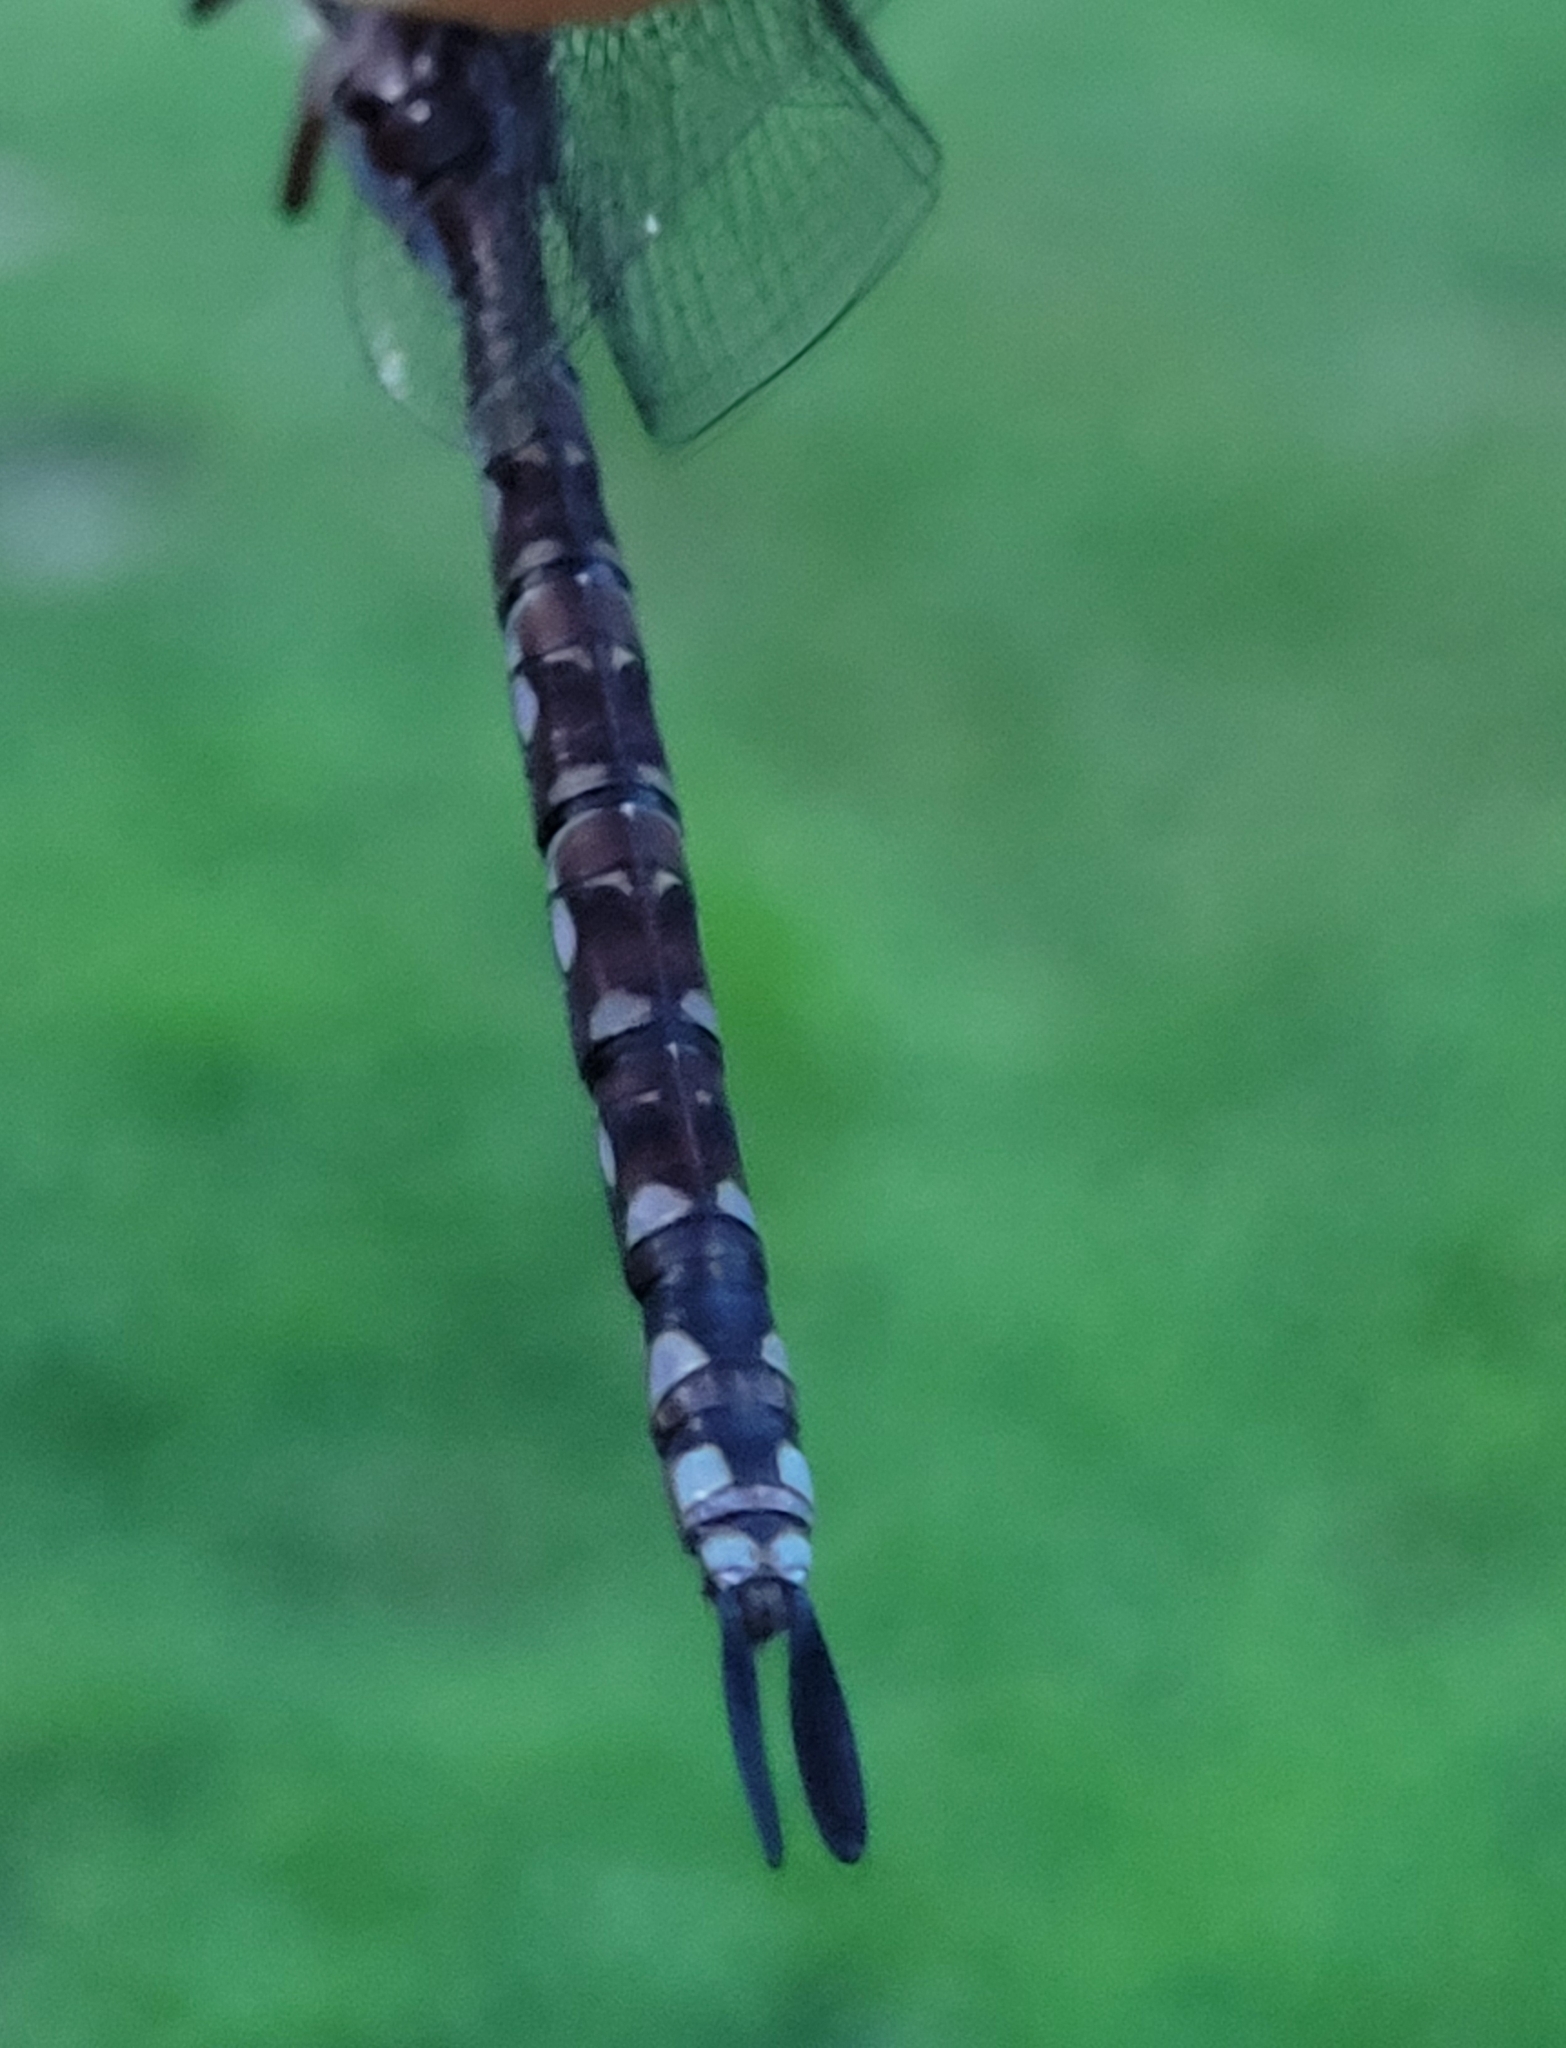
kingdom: Animalia
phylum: Arthropoda
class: Insecta
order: Odonata
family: Aeshnidae
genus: Aeshna
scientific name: Aeshna verticalis
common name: Green-striped darner
